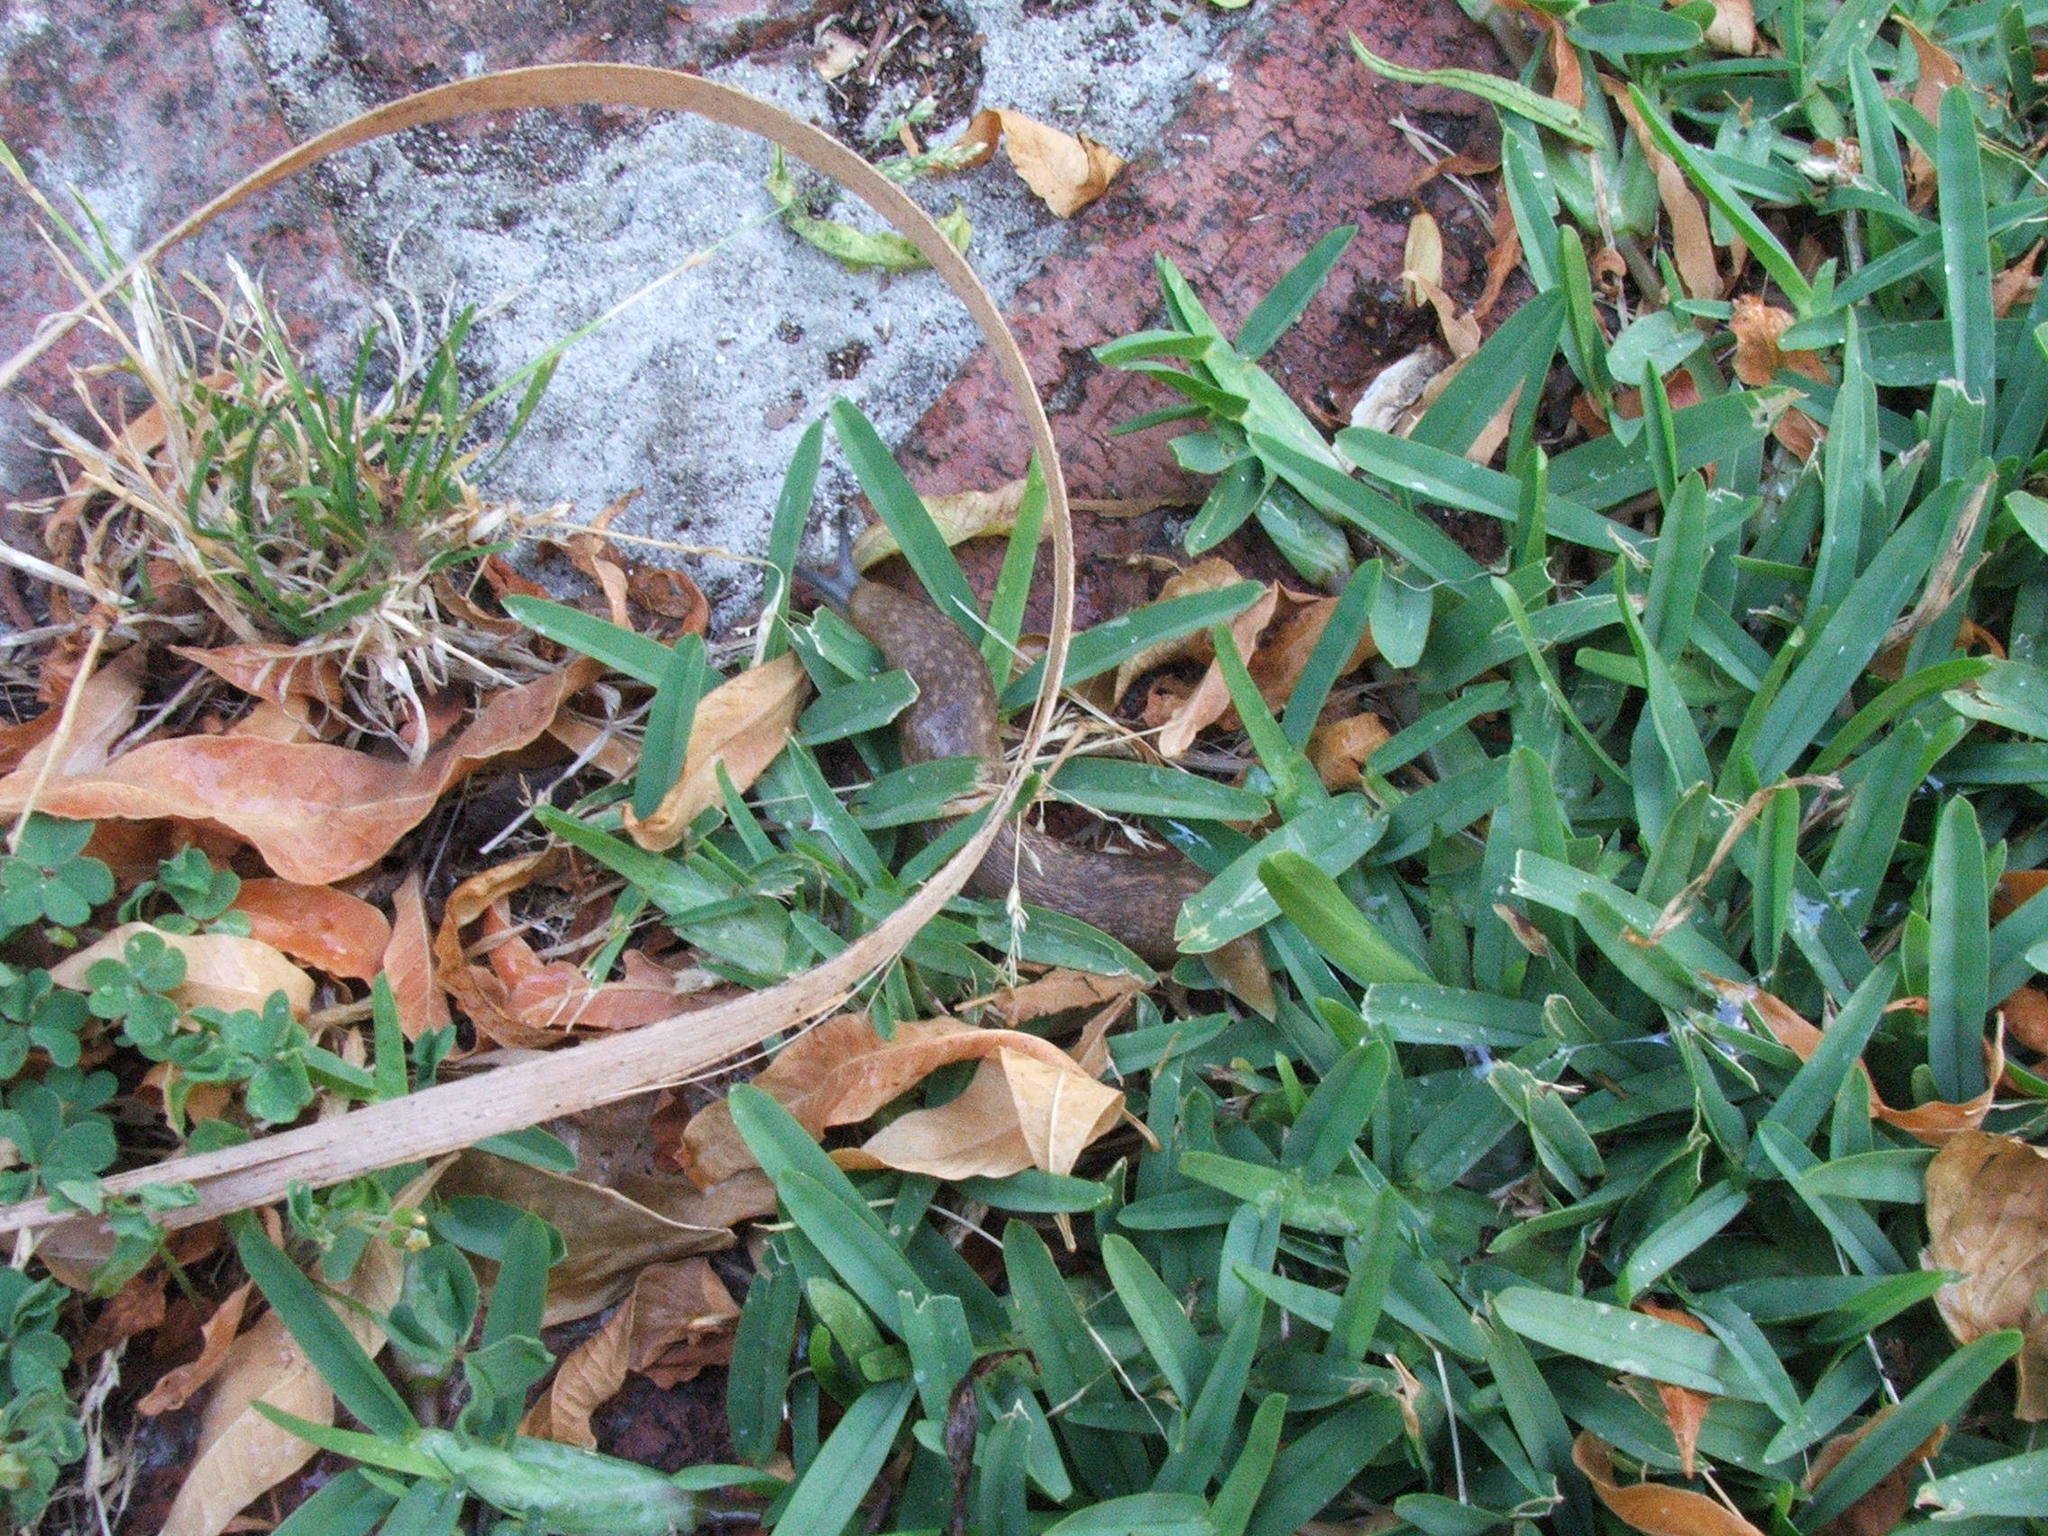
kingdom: Animalia
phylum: Mollusca
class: Gastropoda
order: Stylommatophora
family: Limacidae
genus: Limacus
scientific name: Limacus flavus
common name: Yellow gardenslug
